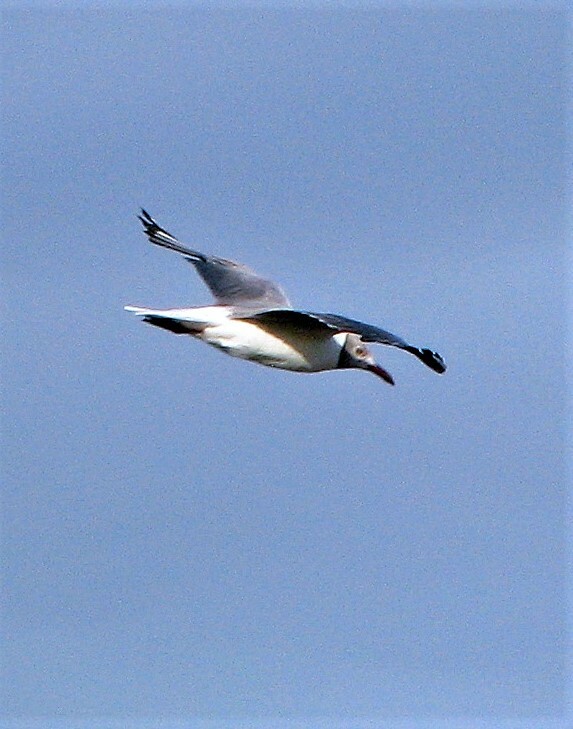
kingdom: Animalia
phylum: Chordata
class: Aves
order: Charadriiformes
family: Laridae
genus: Chroicocephalus
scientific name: Chroicocephalus cirrocephalus
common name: Grey-headed gull
